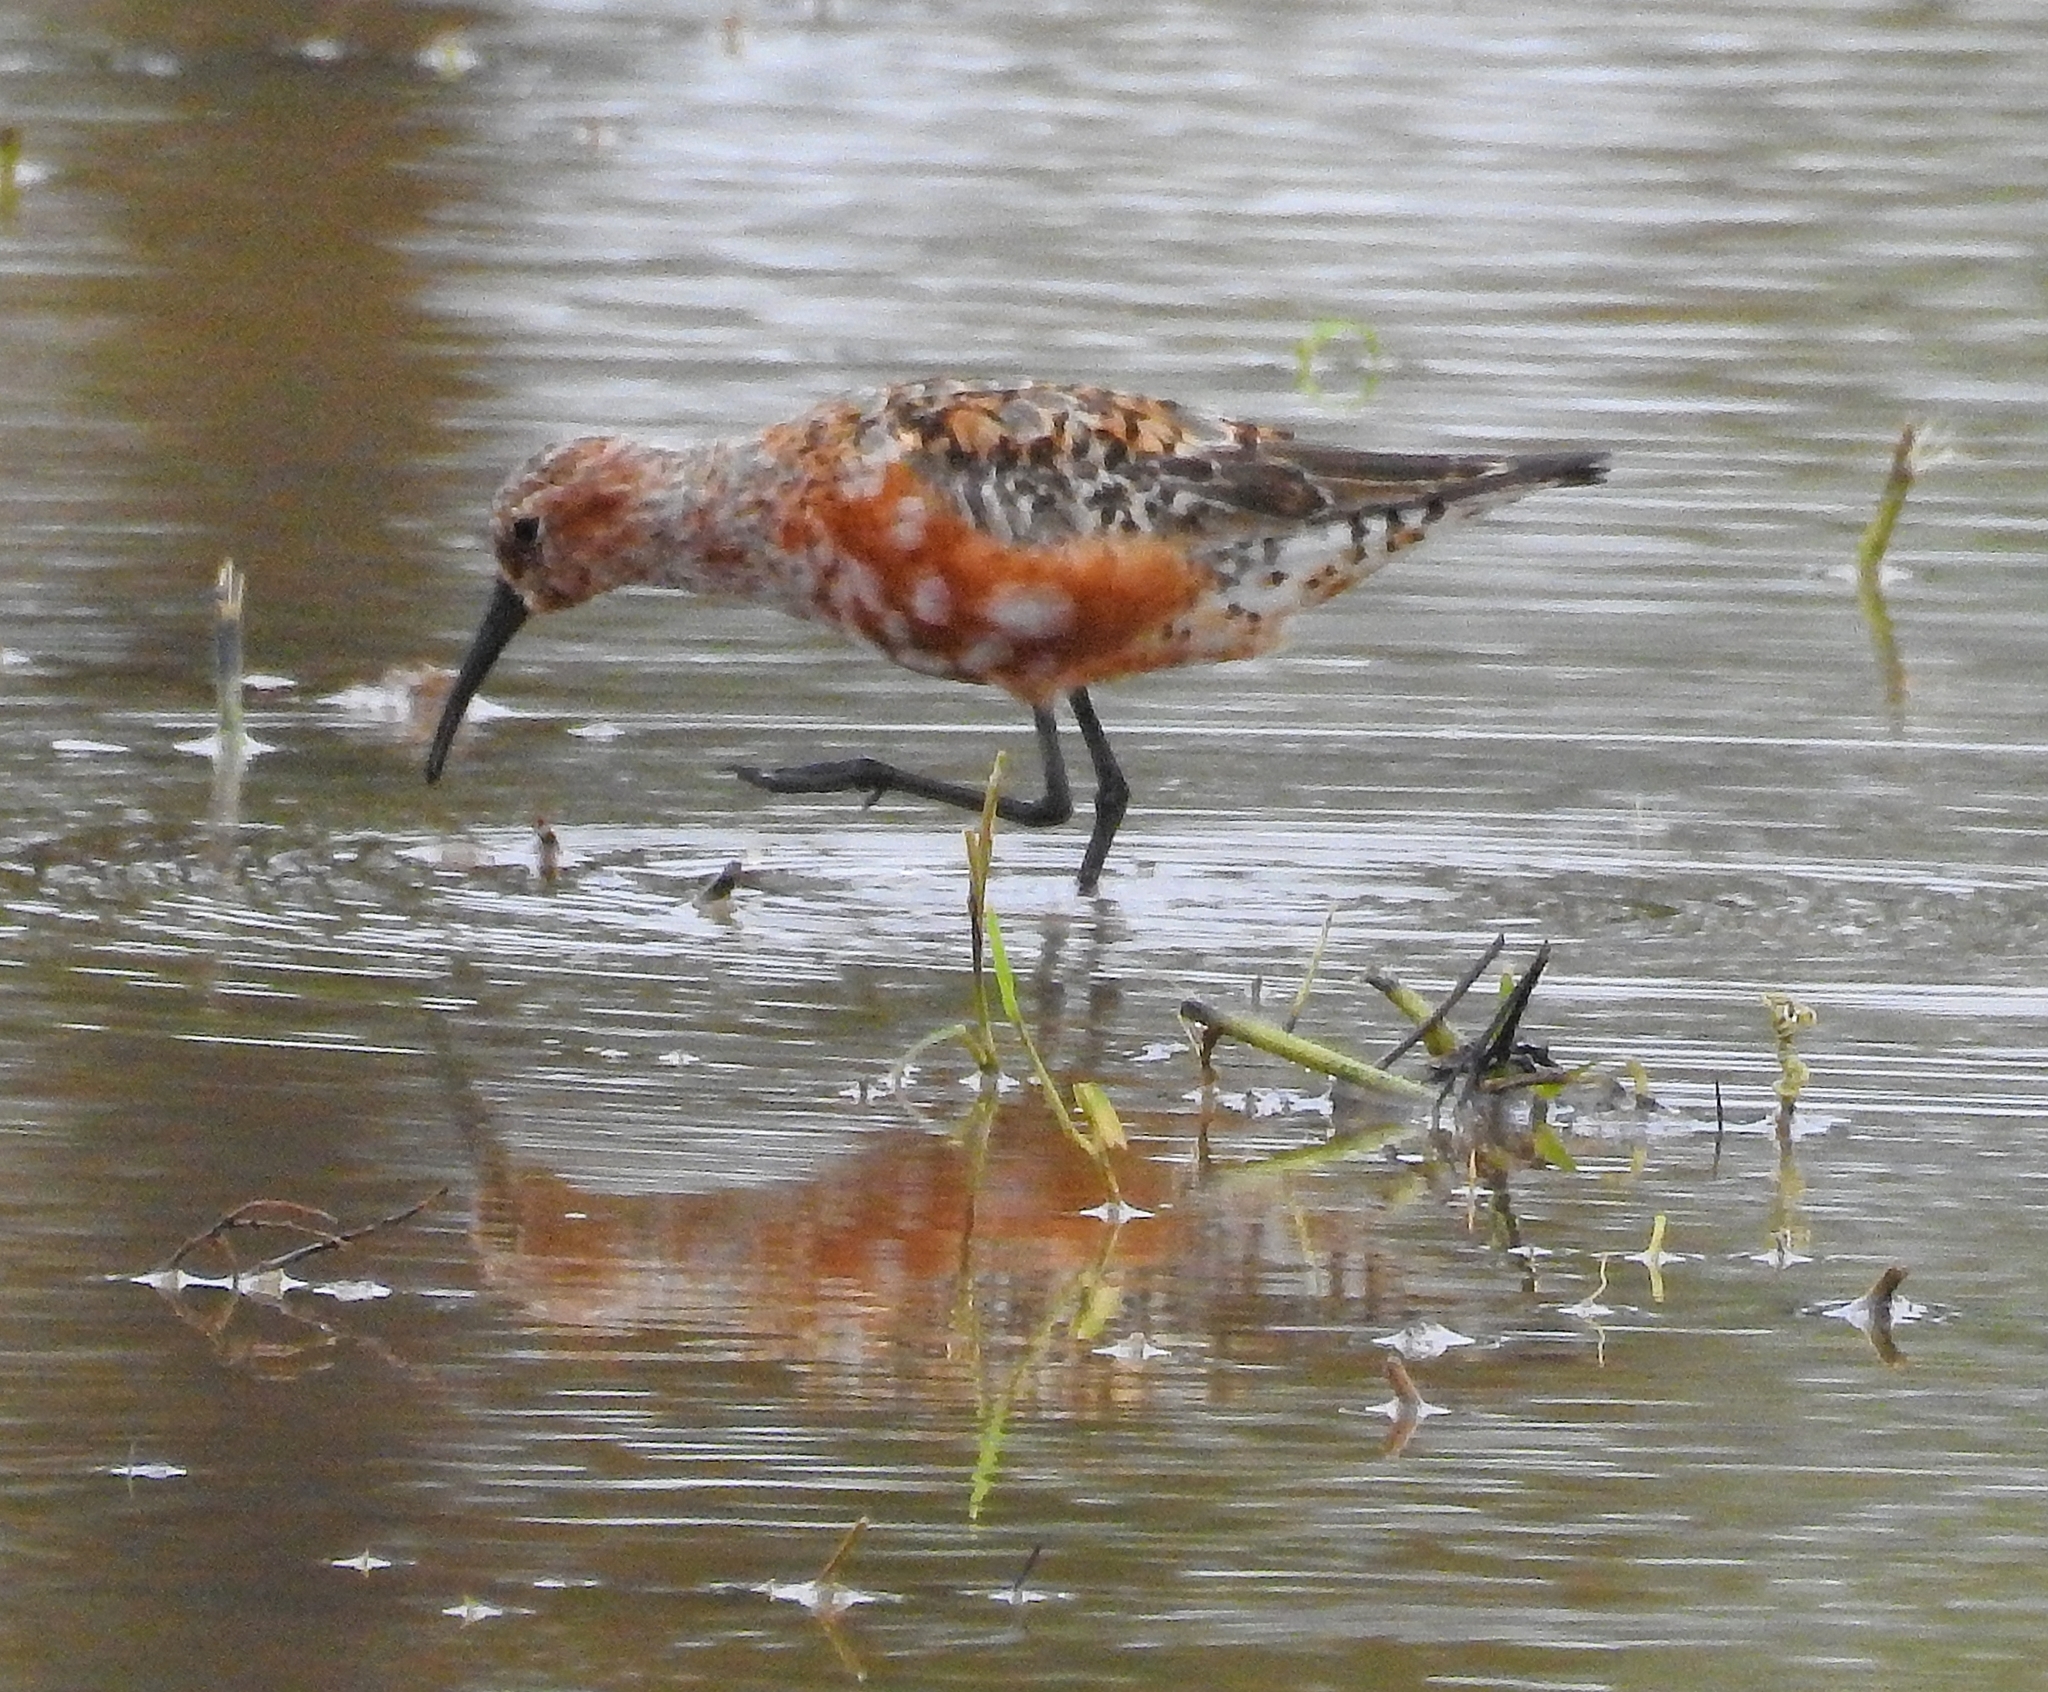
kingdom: Animalia
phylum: Chordata
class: Aves
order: Charadriiformes
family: Scolopacidae
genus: Calidris
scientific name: Calidris ferruginea
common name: Curlew sandpiper
